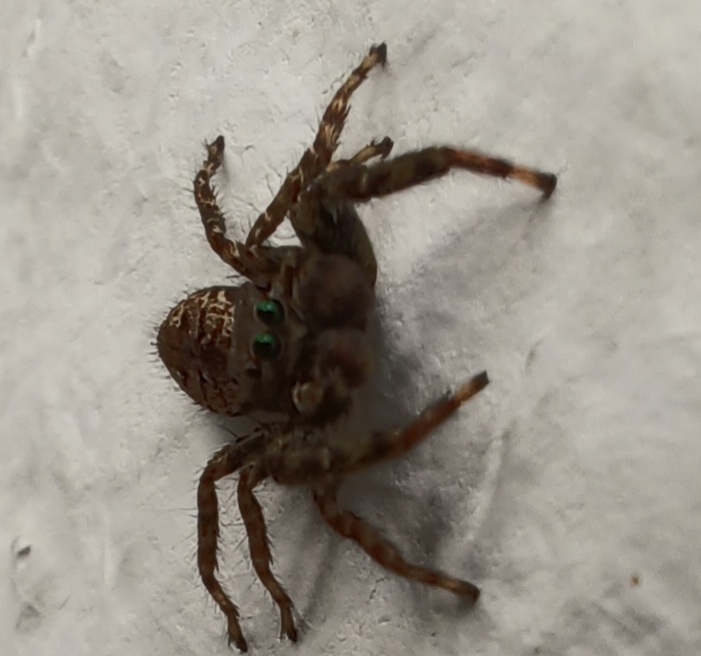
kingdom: Animalia
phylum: Arthropoda
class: Arachnida
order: Araneae
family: Salticidae
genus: Marpissa
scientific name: Marpissa muscosa
